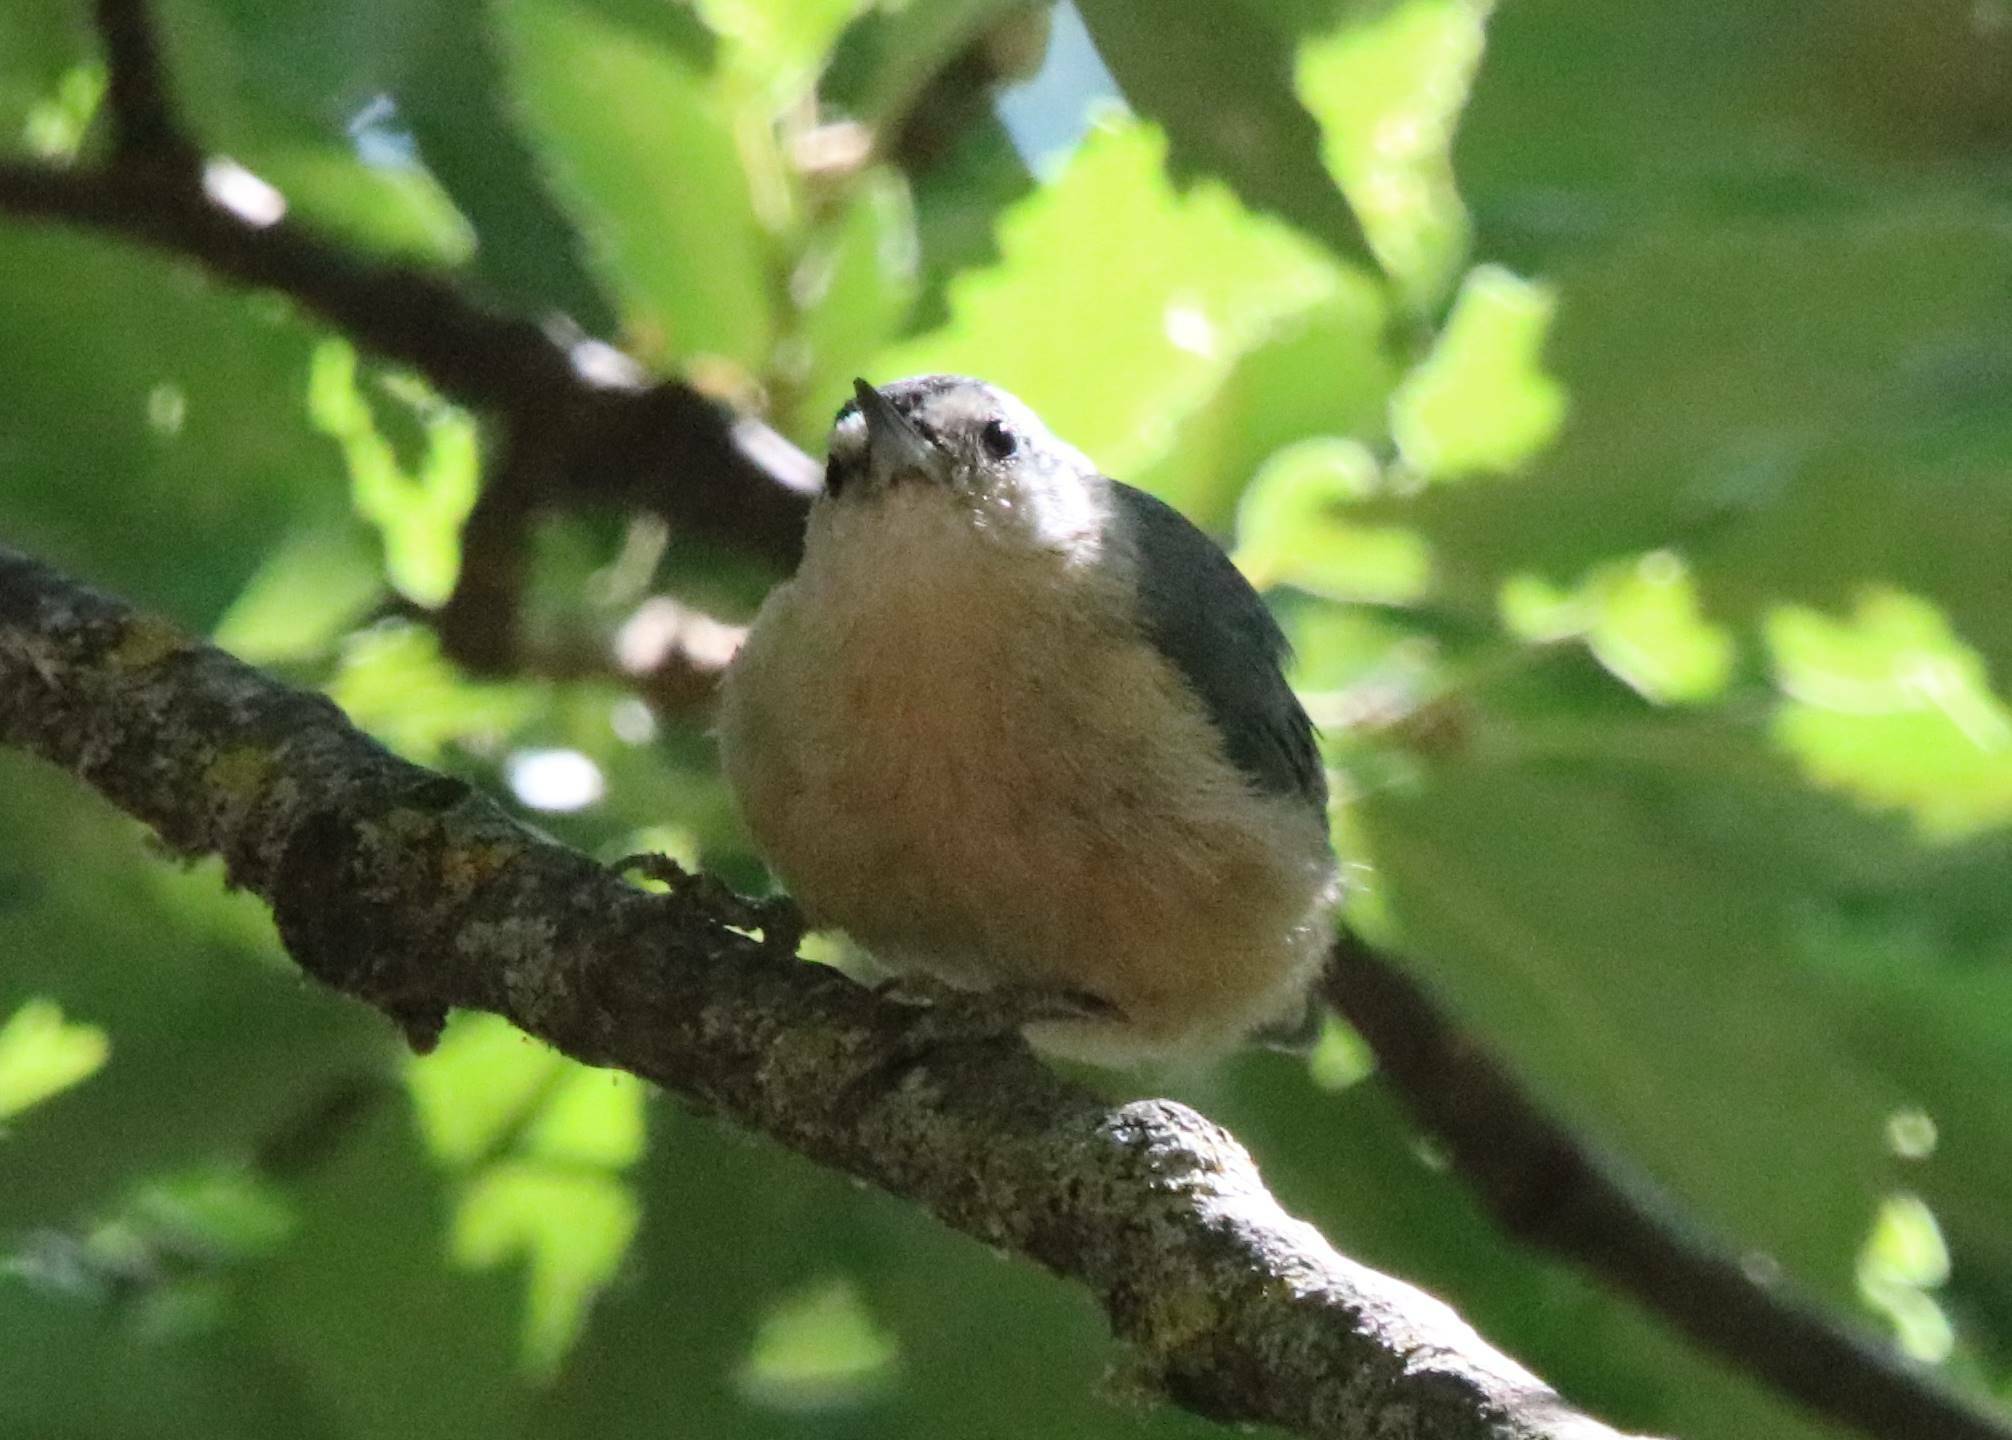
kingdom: Animalia
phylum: Chordata
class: Aves
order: Passeriformes
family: Sittidae
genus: Sitta
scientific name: Sitta ledanti
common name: Algerian nuthatch
